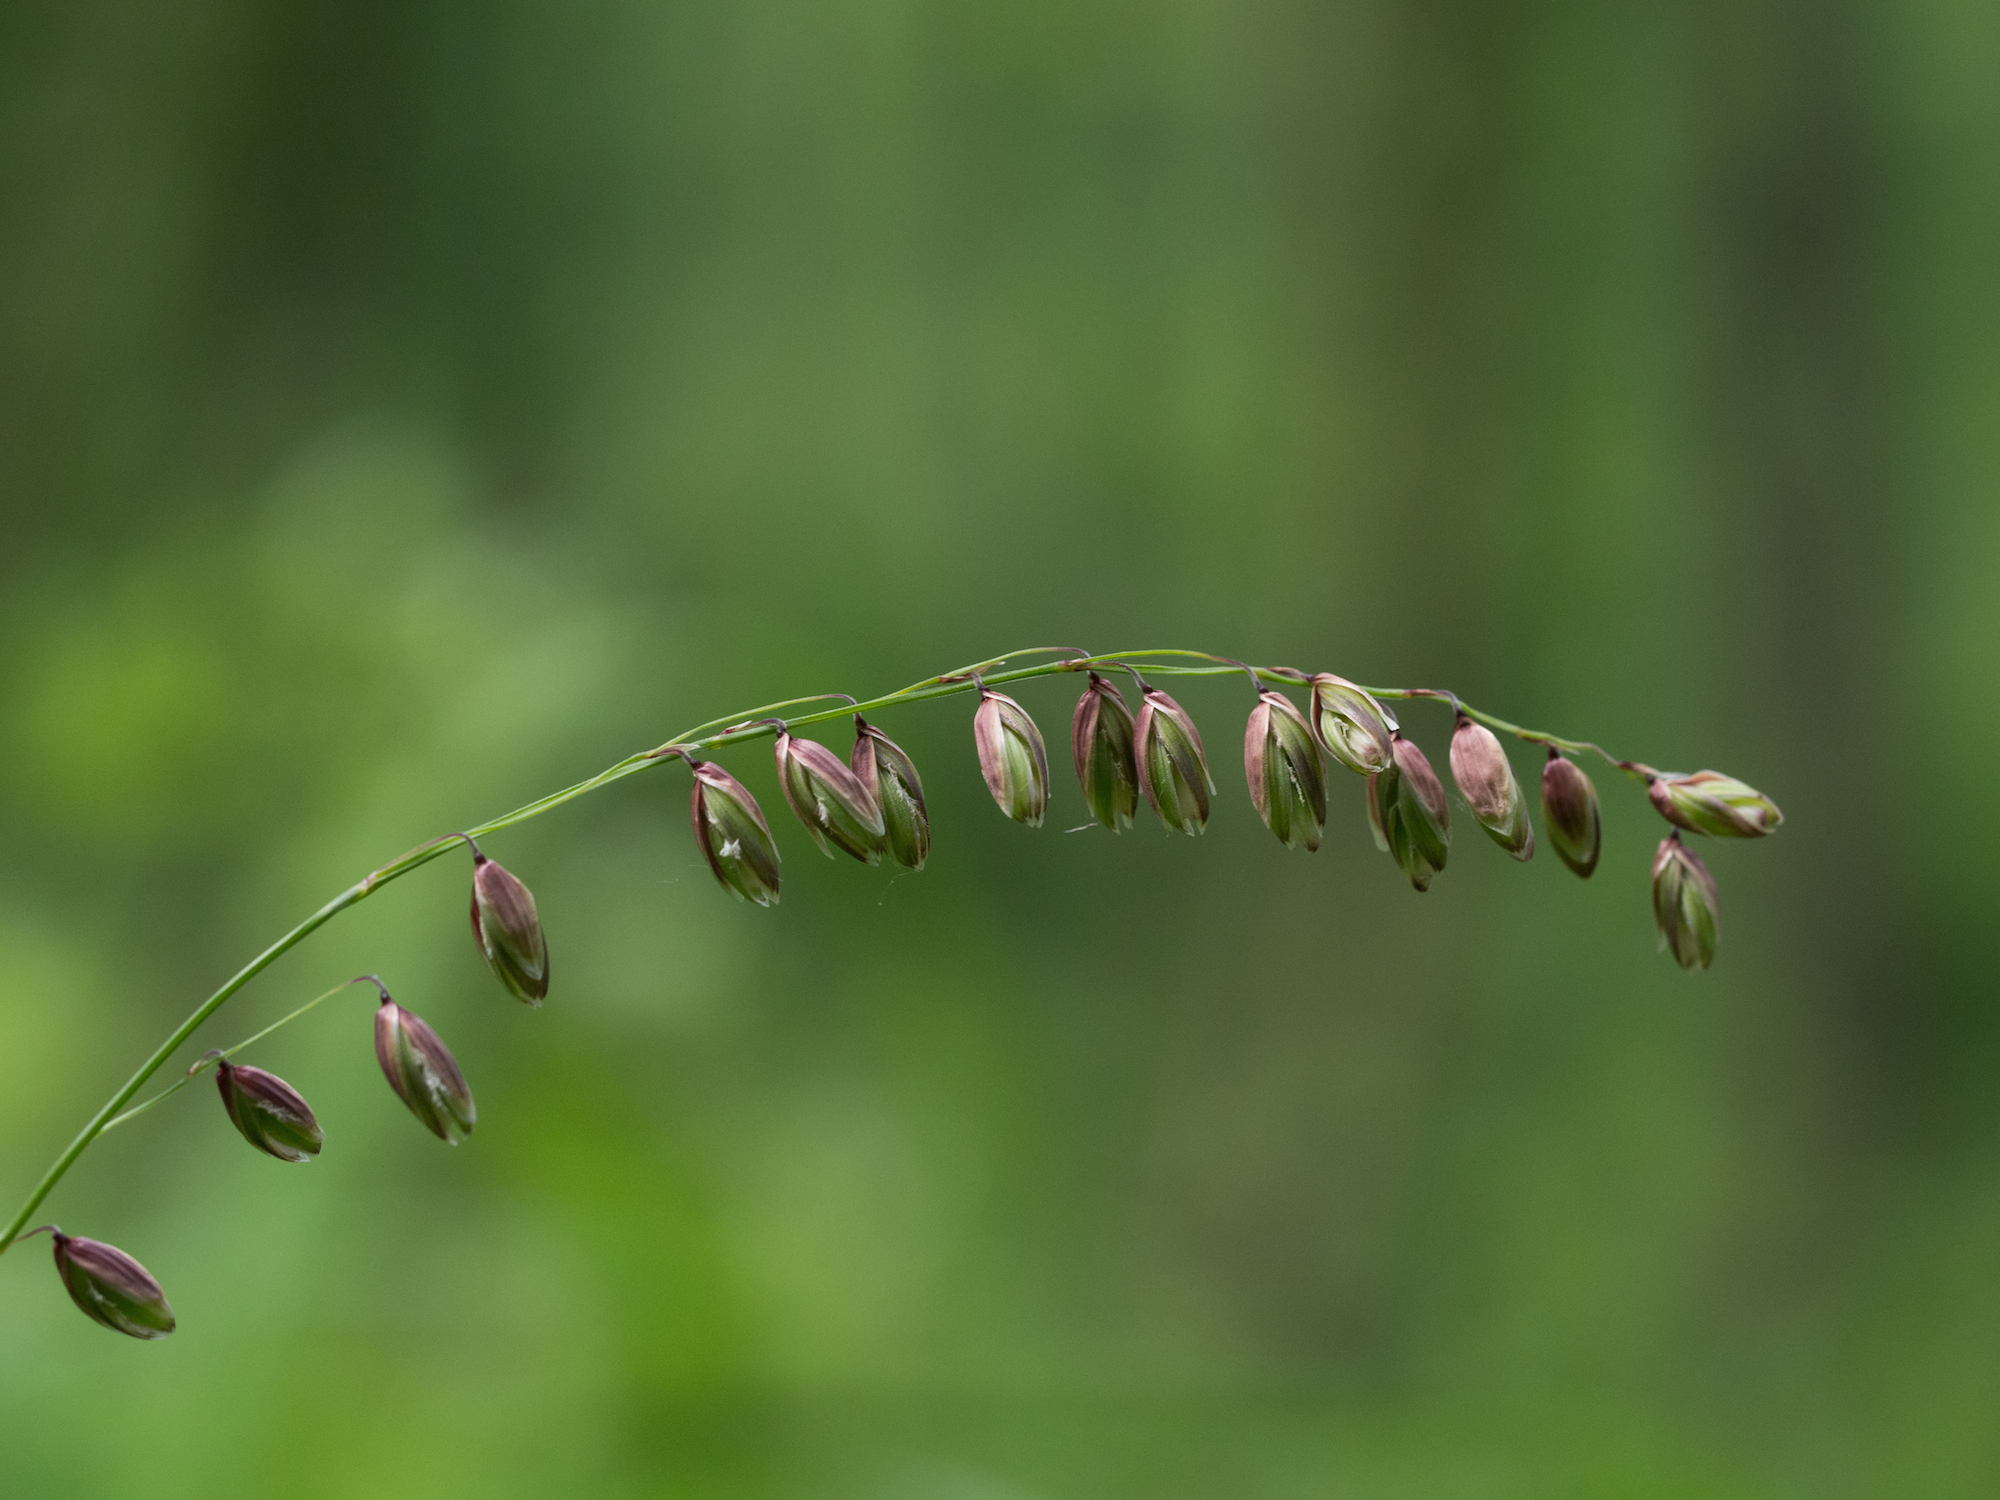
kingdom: Plantae
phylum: Tracheophyta
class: Liliopsida
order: Poales
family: Poaceae
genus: Melica
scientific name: Melica nutans
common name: Mountain melick
